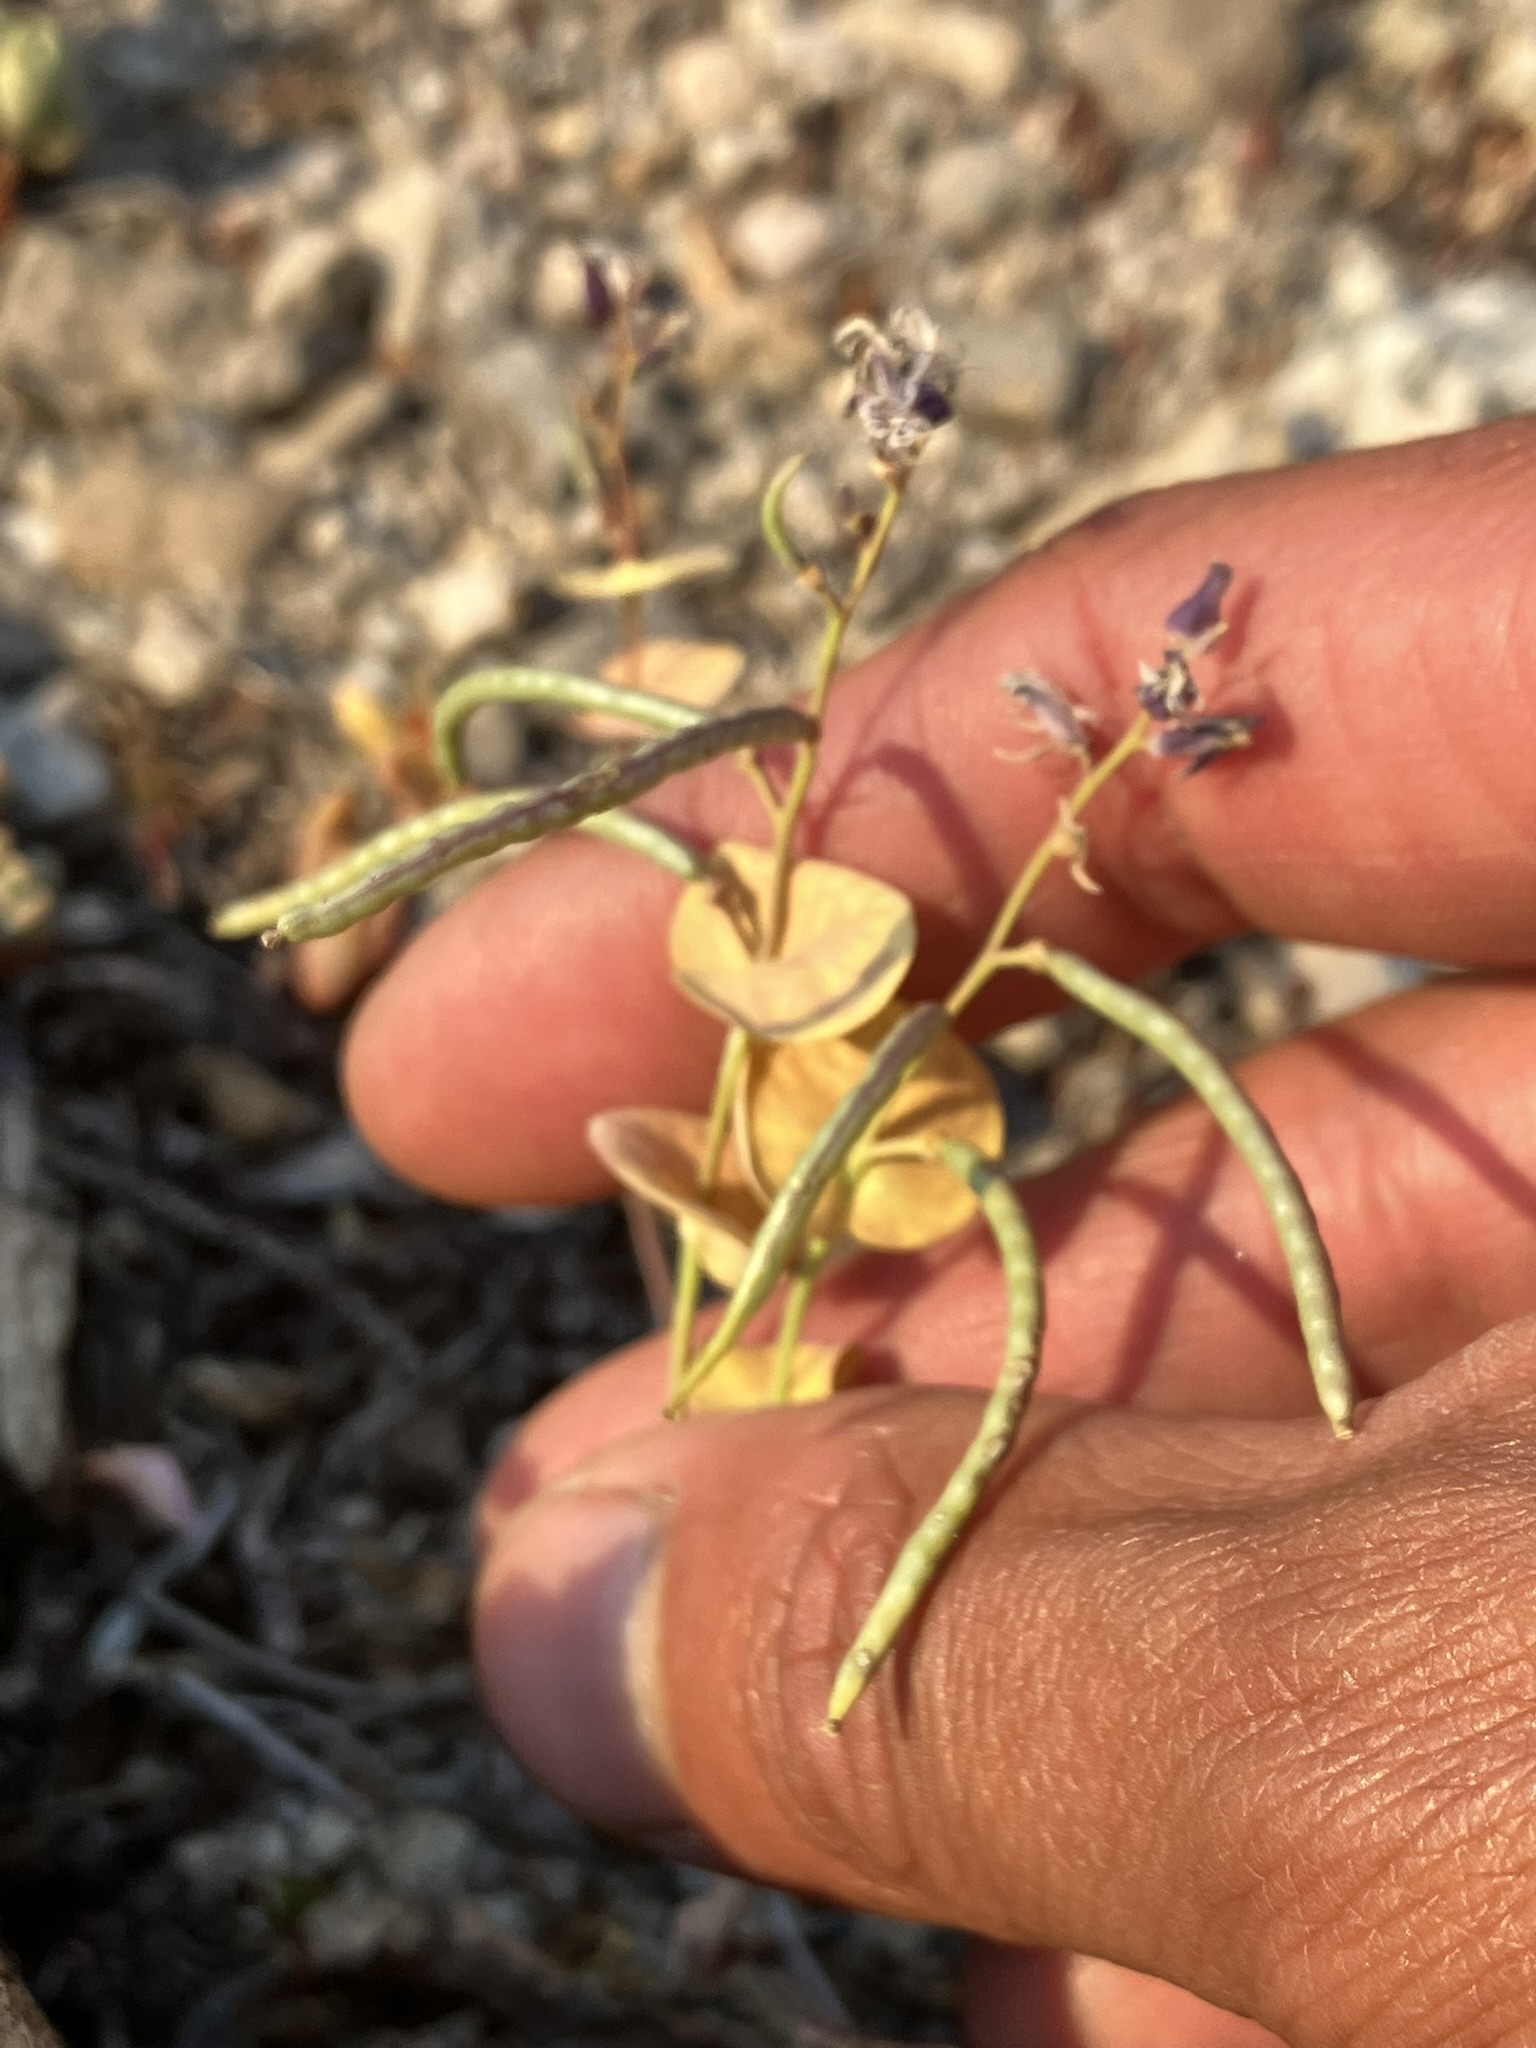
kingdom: Plantae
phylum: Tracheophyta
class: Magnoliopsida
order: Brassicales
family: Brassicaceae
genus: Streptanthus
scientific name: Streptanthus tortuosus
